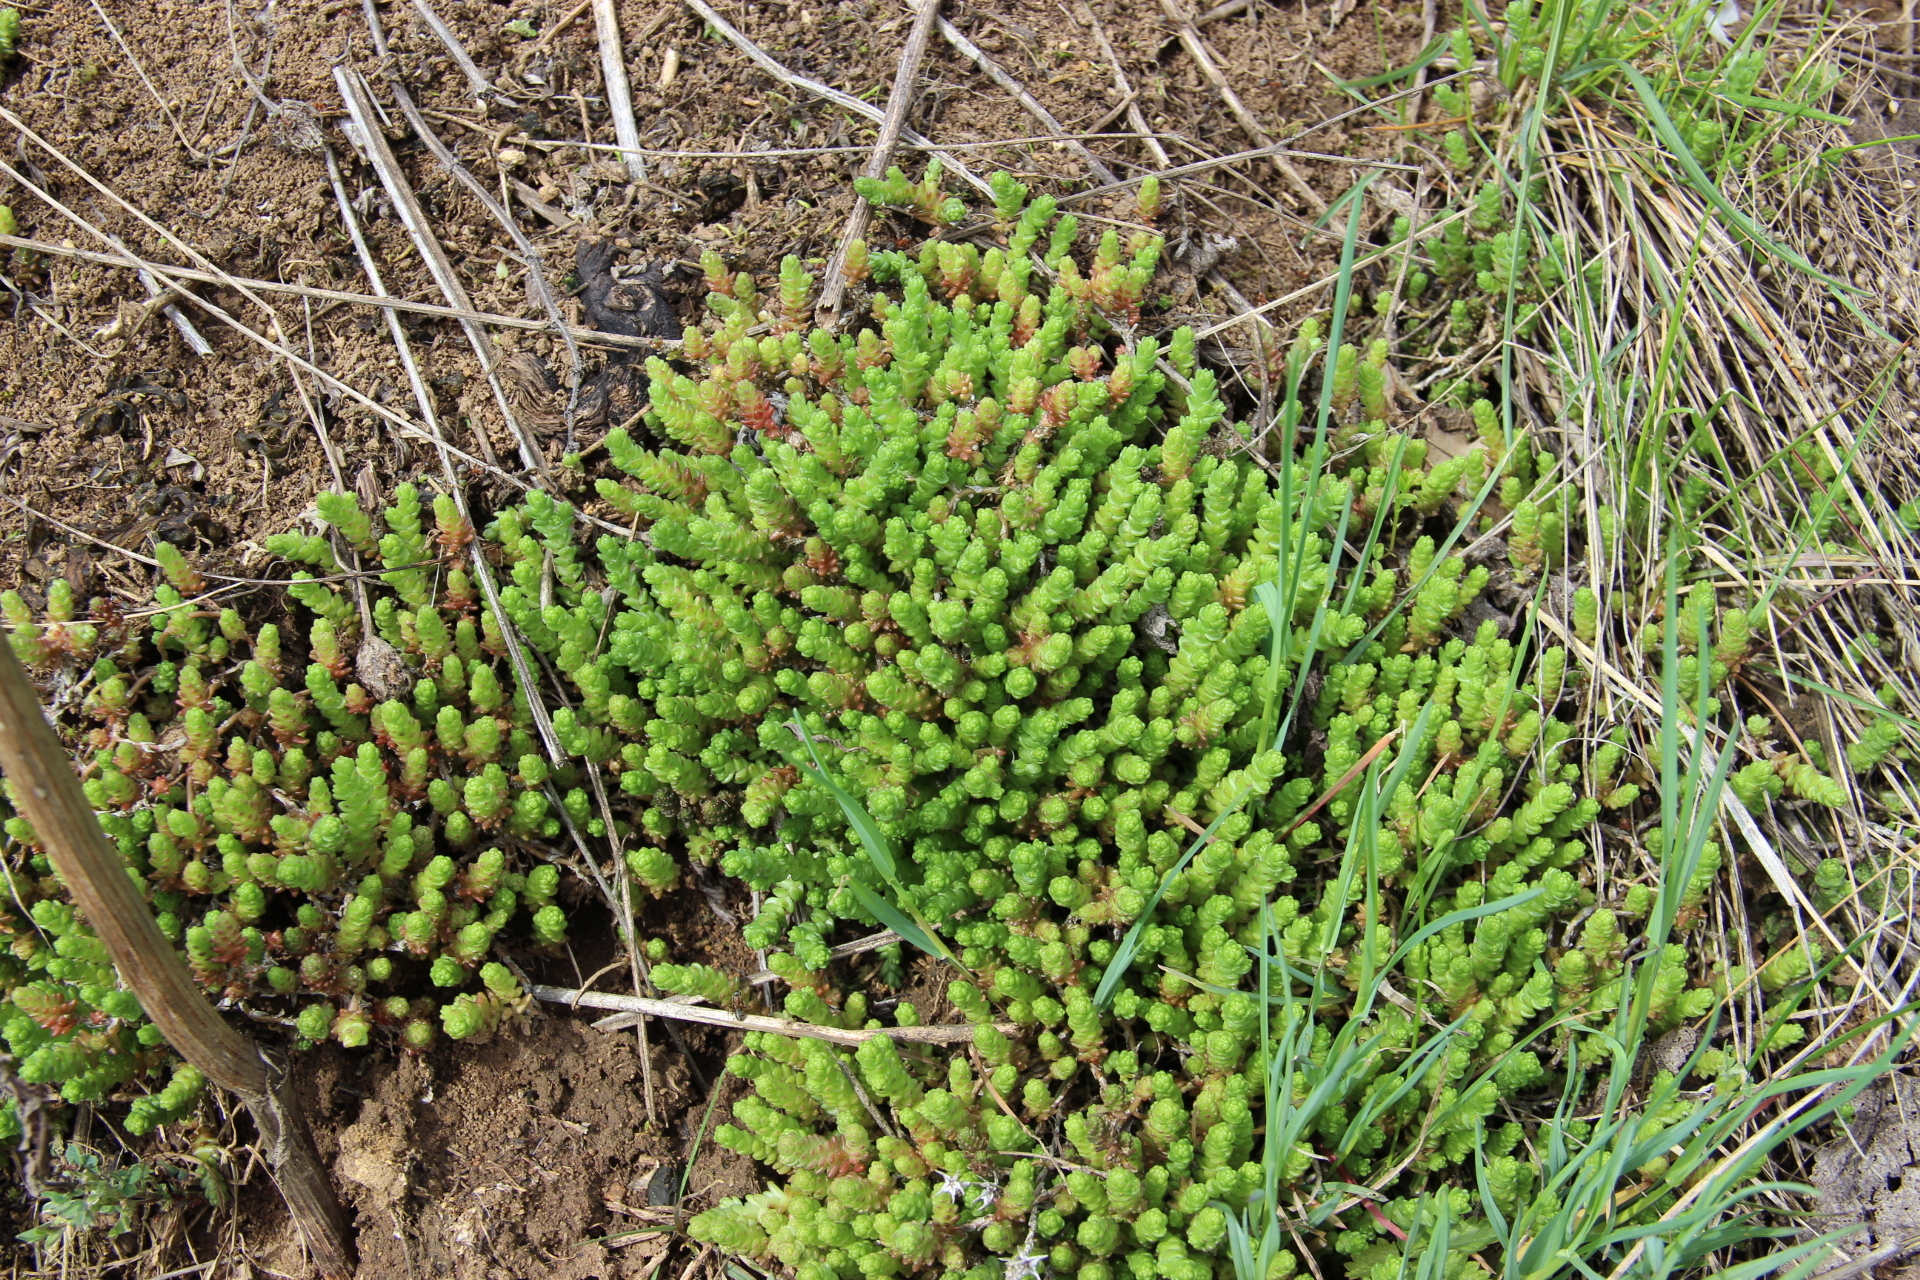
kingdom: Plantae
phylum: Tracheophyta
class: Magnoliopsida
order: Saxifragales
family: Crassulaceae
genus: Sedum
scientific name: Sedum acre
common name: Biting stonecrop
